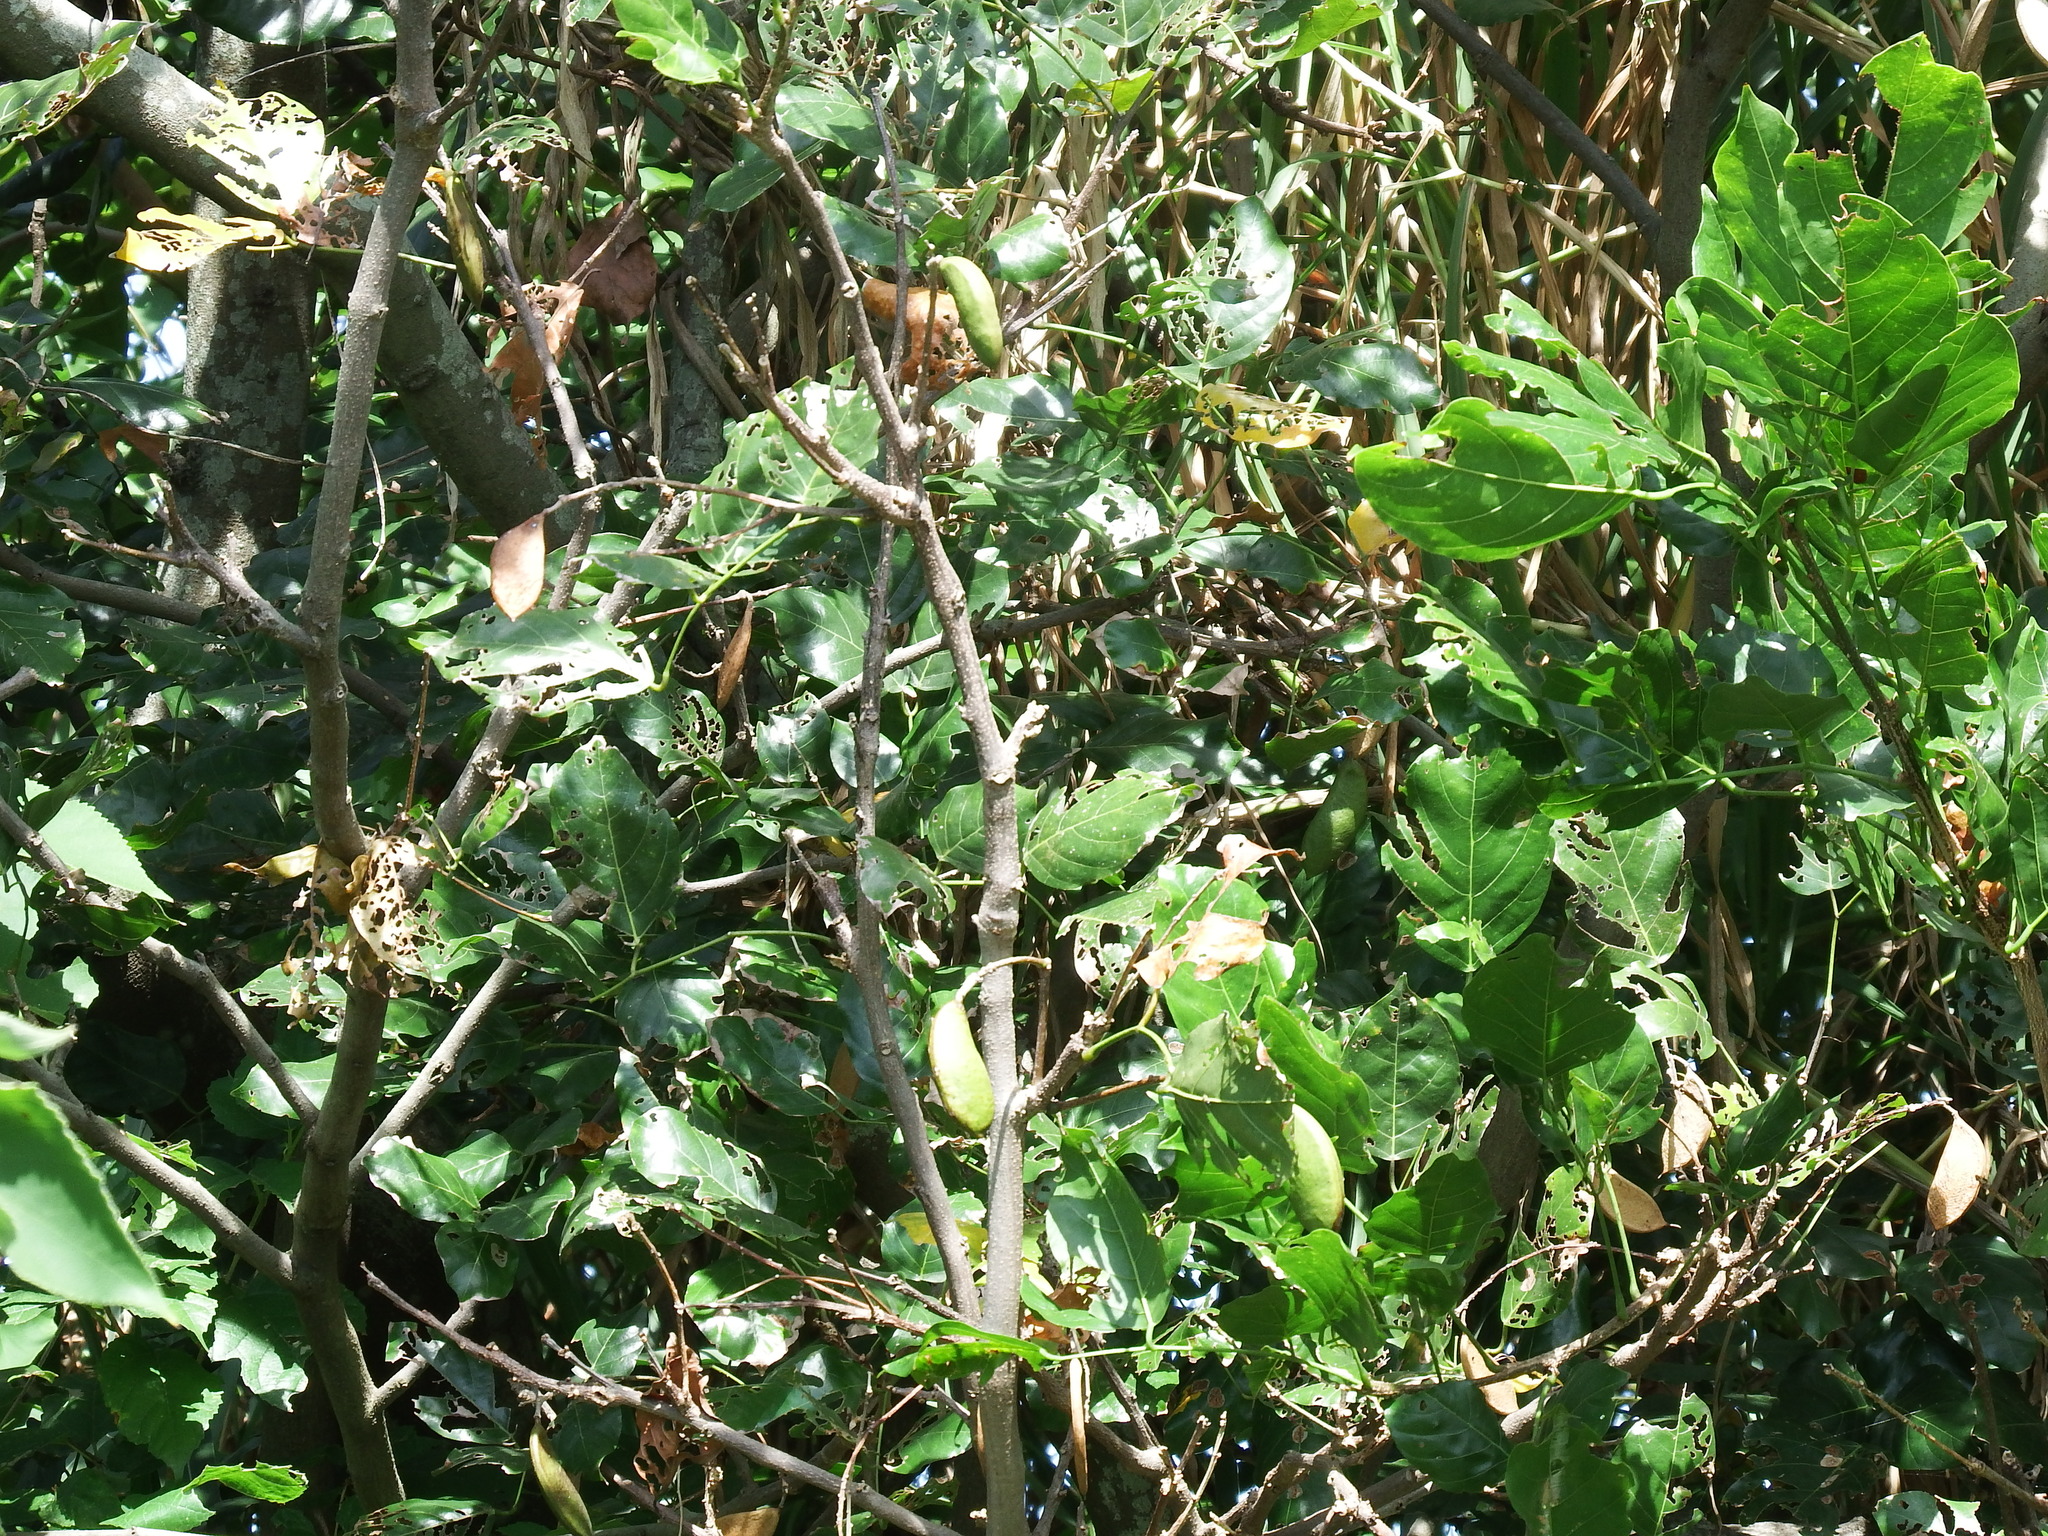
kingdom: Plantae
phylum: Tracheophyta
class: Magnoliopsida
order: Fabales
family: Fabaceae
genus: Pongamia
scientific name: Pongamia pinnata
